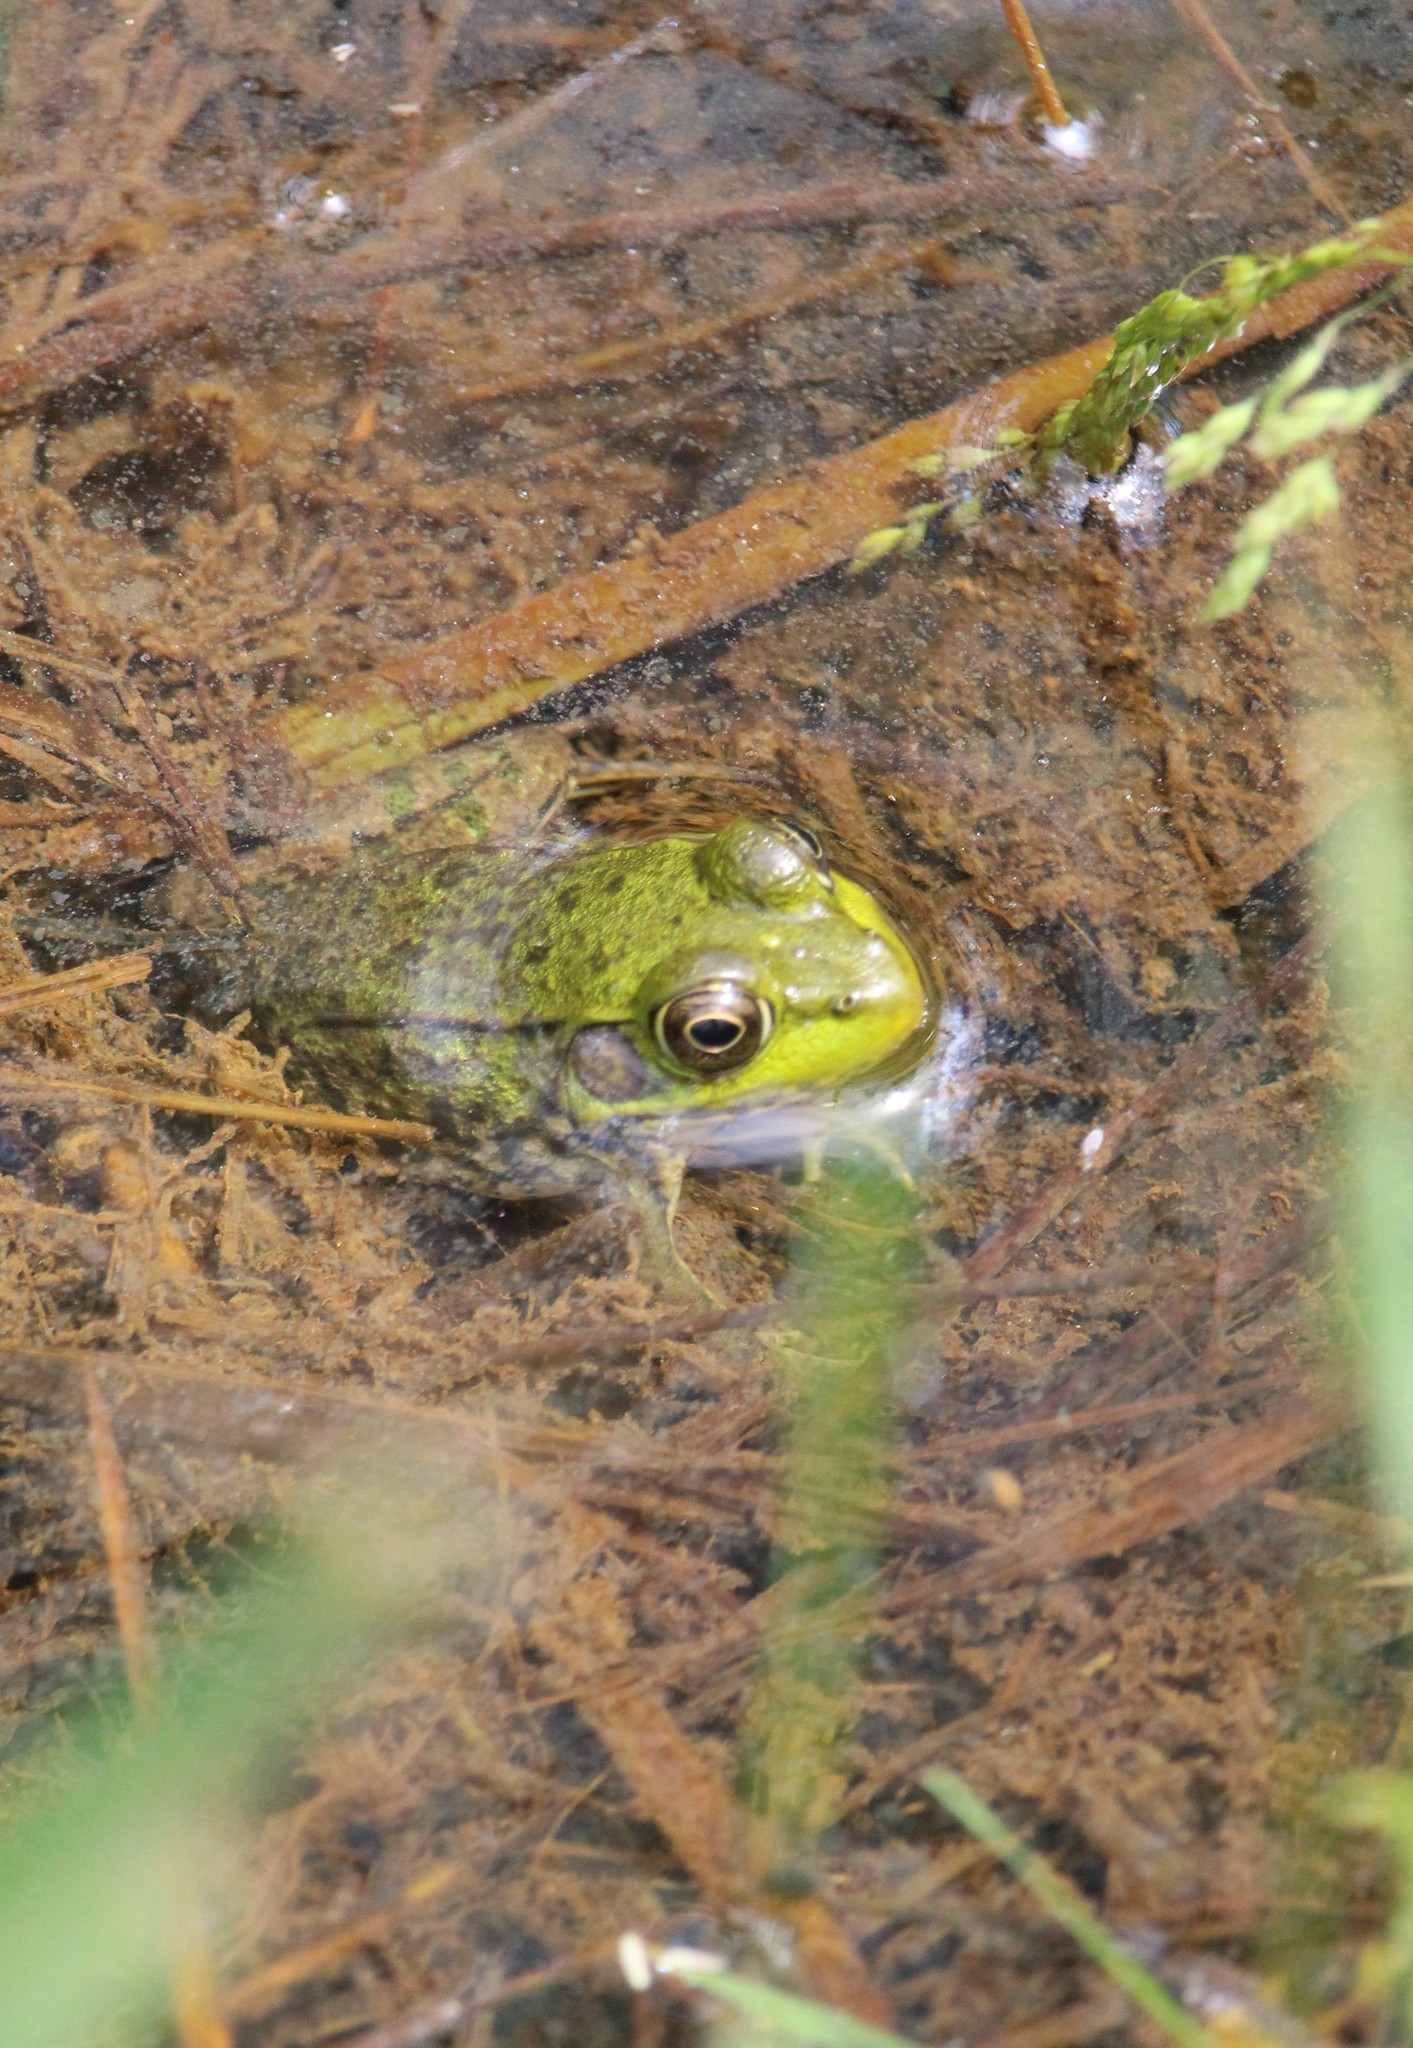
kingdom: Animalia
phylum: Chordata
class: Amphibia
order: Anura
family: Ranidae
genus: Lithobates
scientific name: Lithobates clamitans
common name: Green frog
